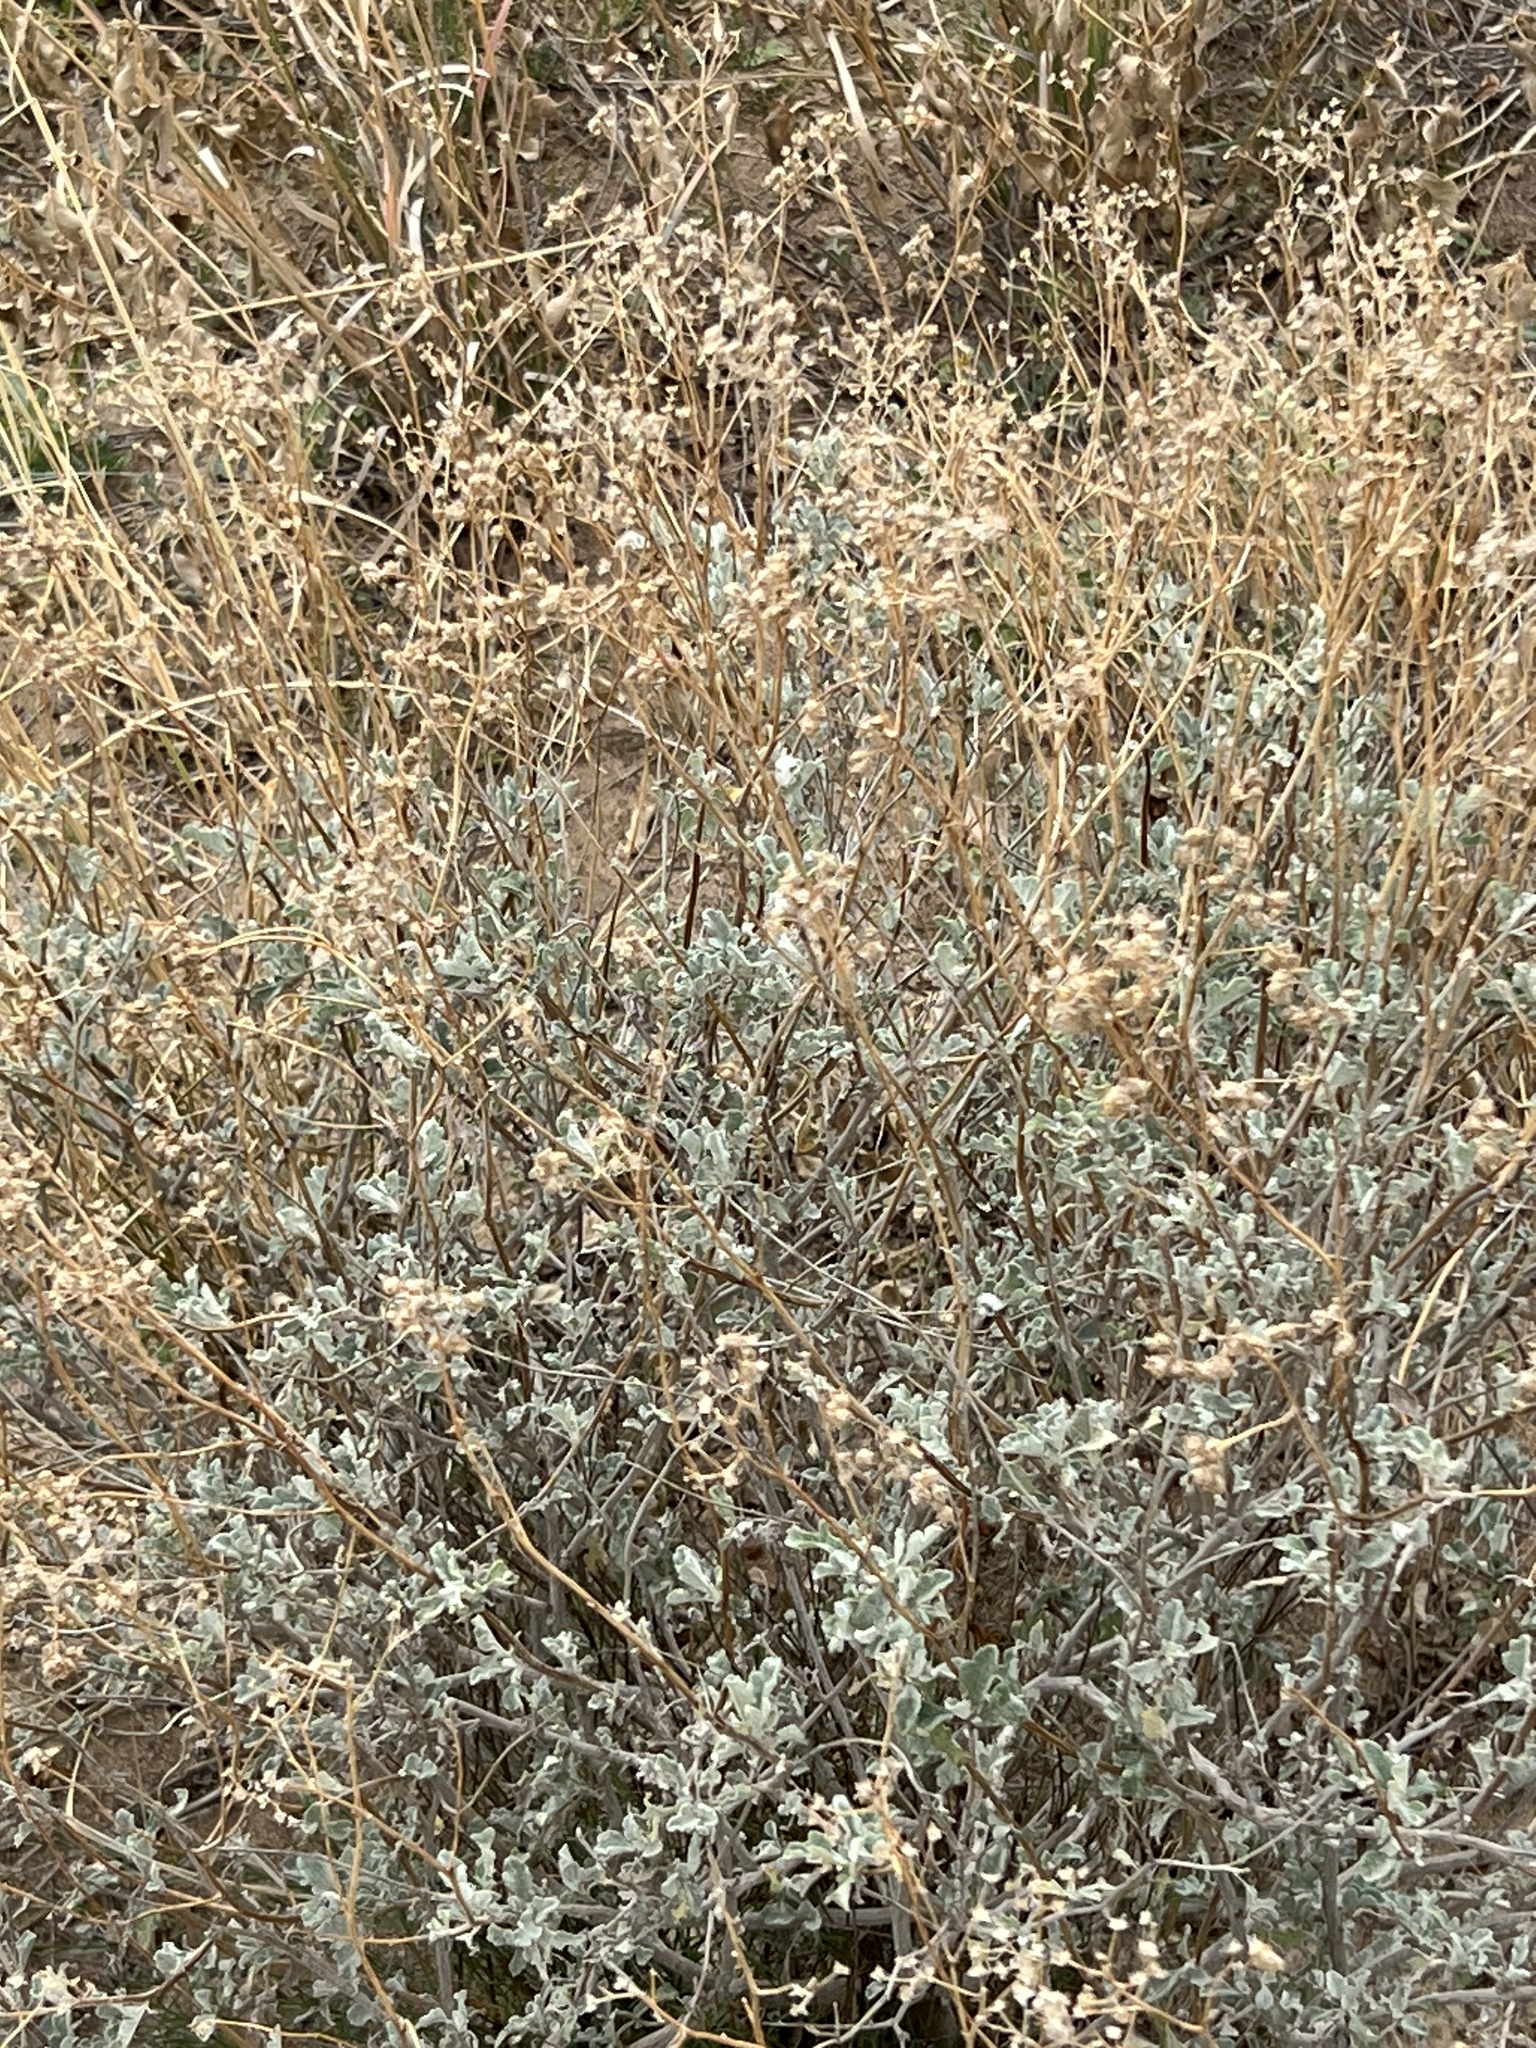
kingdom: Plantae
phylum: Tracheophyta
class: Magnoliopsida
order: Asterales
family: Asteraceae
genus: Parthenium
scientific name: Parthenium incanum
